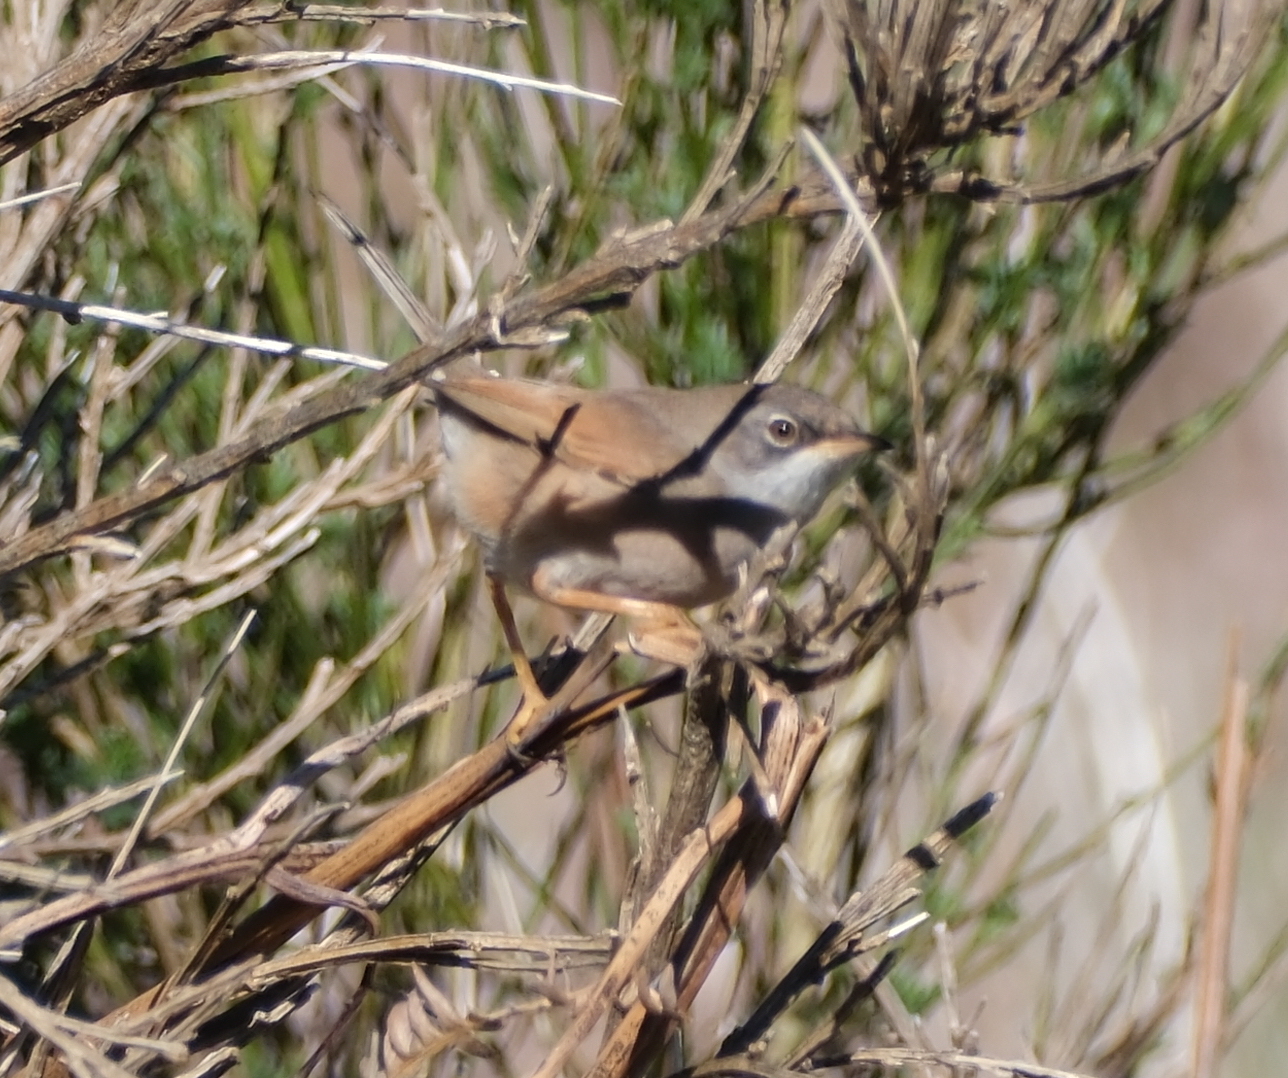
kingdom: Animalia
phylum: Chordata
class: Aves
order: Passeriformes
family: Sylviidae
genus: Sylvia
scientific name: Sylvia conspicillata
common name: Spectacled warbler
